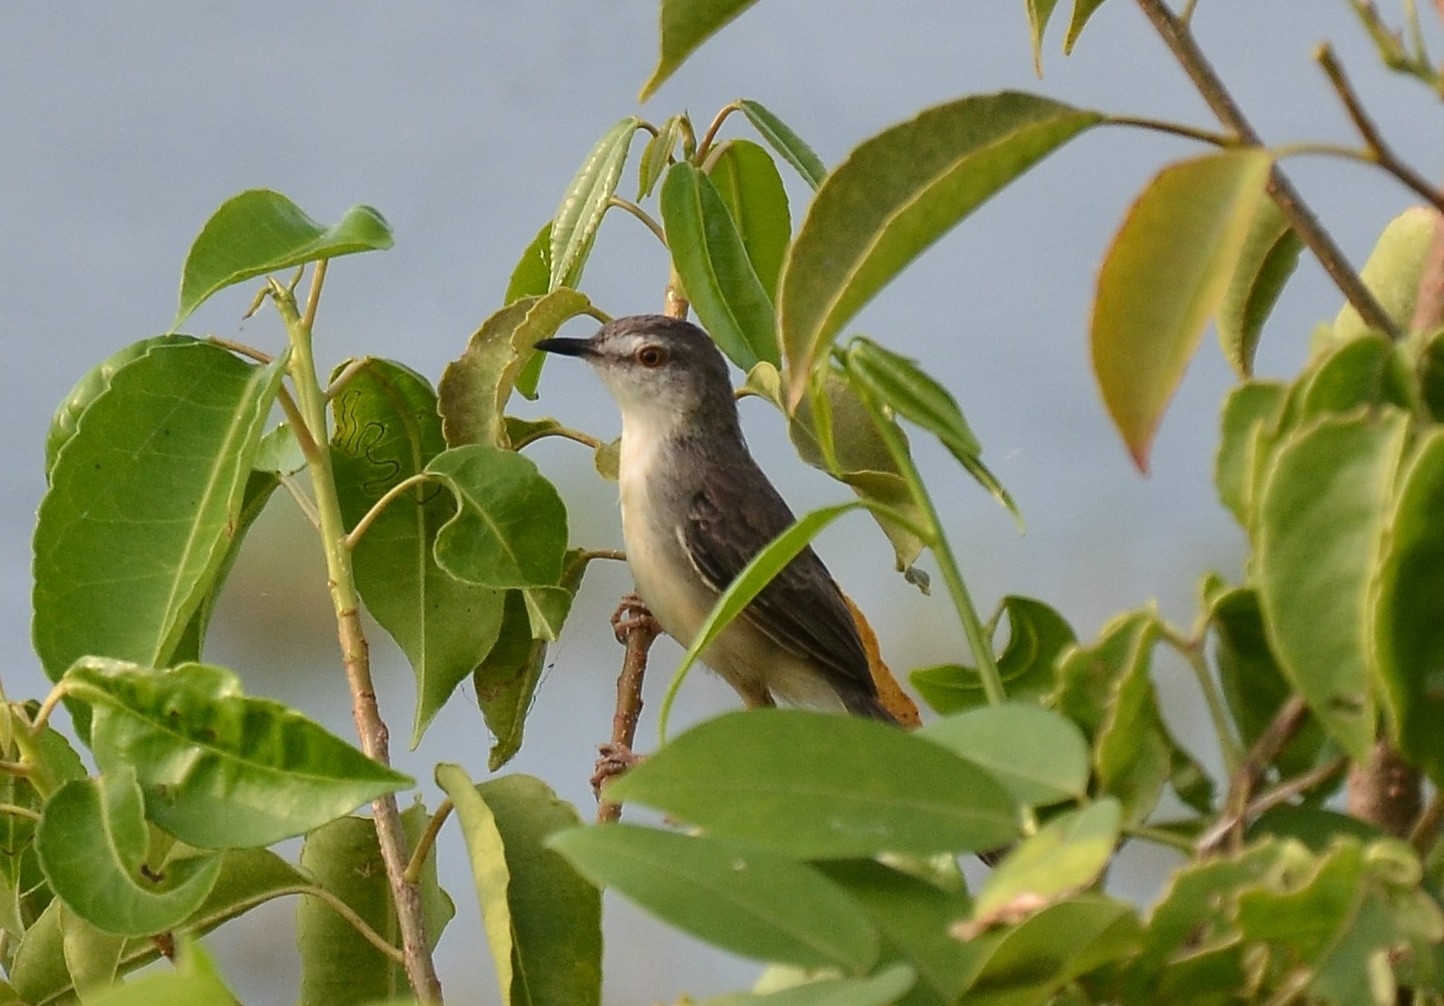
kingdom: Animalia
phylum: Chordata
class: Aves
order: Passeriformes
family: Cisticolidae
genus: Prinia
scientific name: Prinia inornata
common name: Plain prinia
